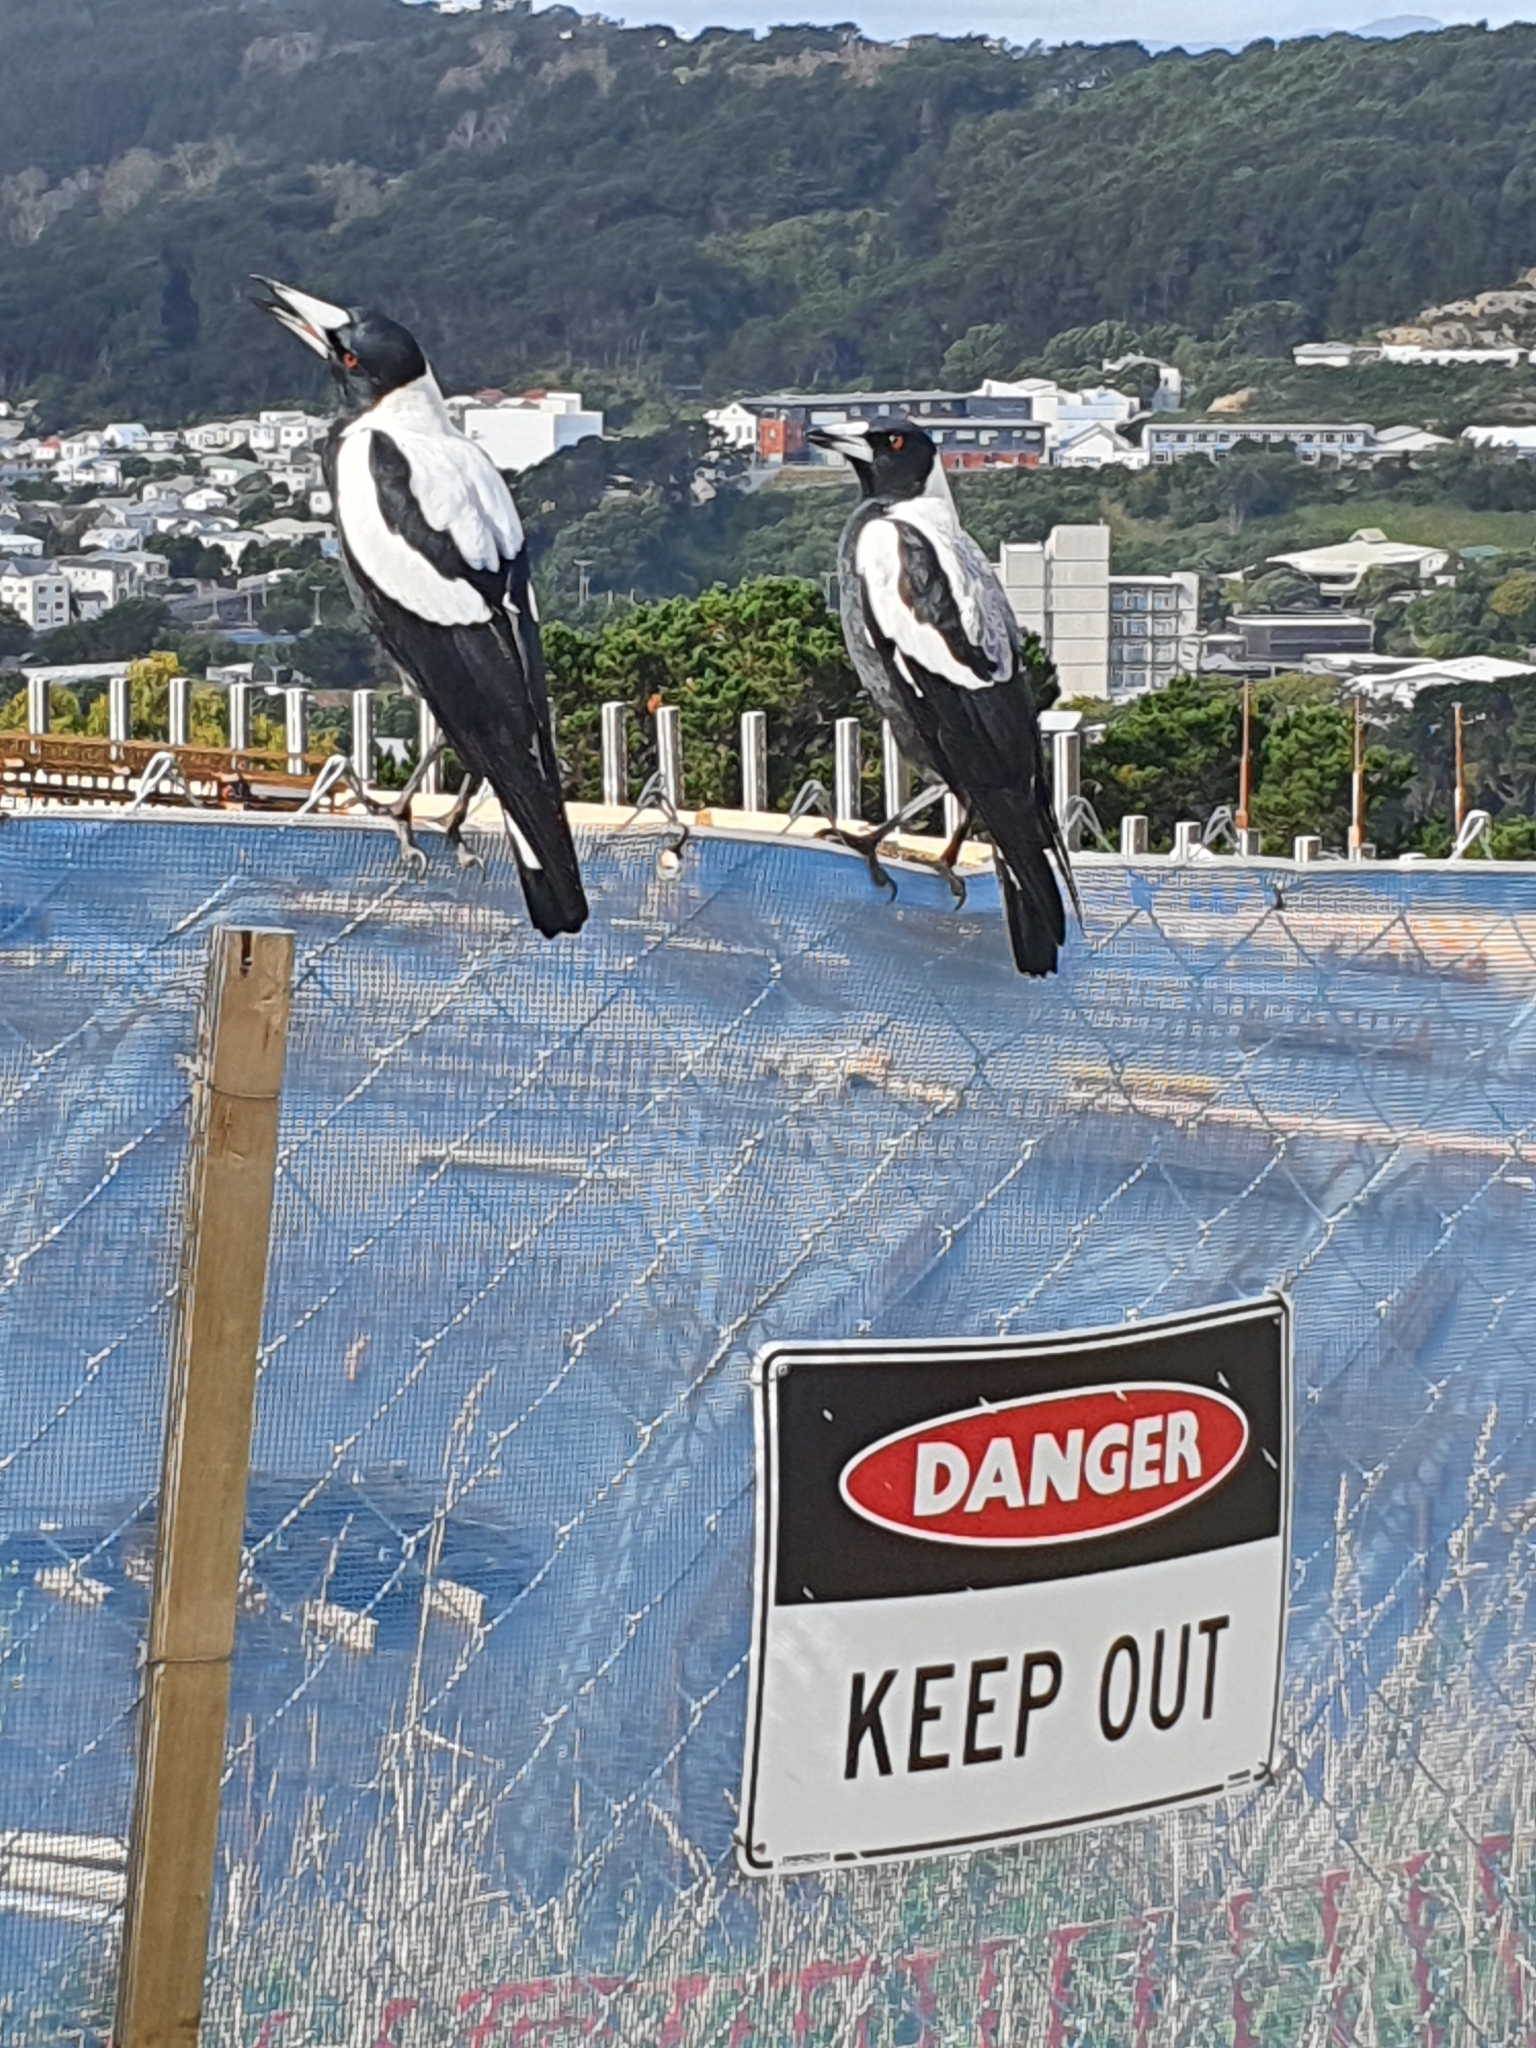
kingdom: Animalia
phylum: Chordata
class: Aves
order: Passeriformes
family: Cracticidae
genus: Gymnorhina
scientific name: Gymnorhina tibicen
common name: Australian magpie
